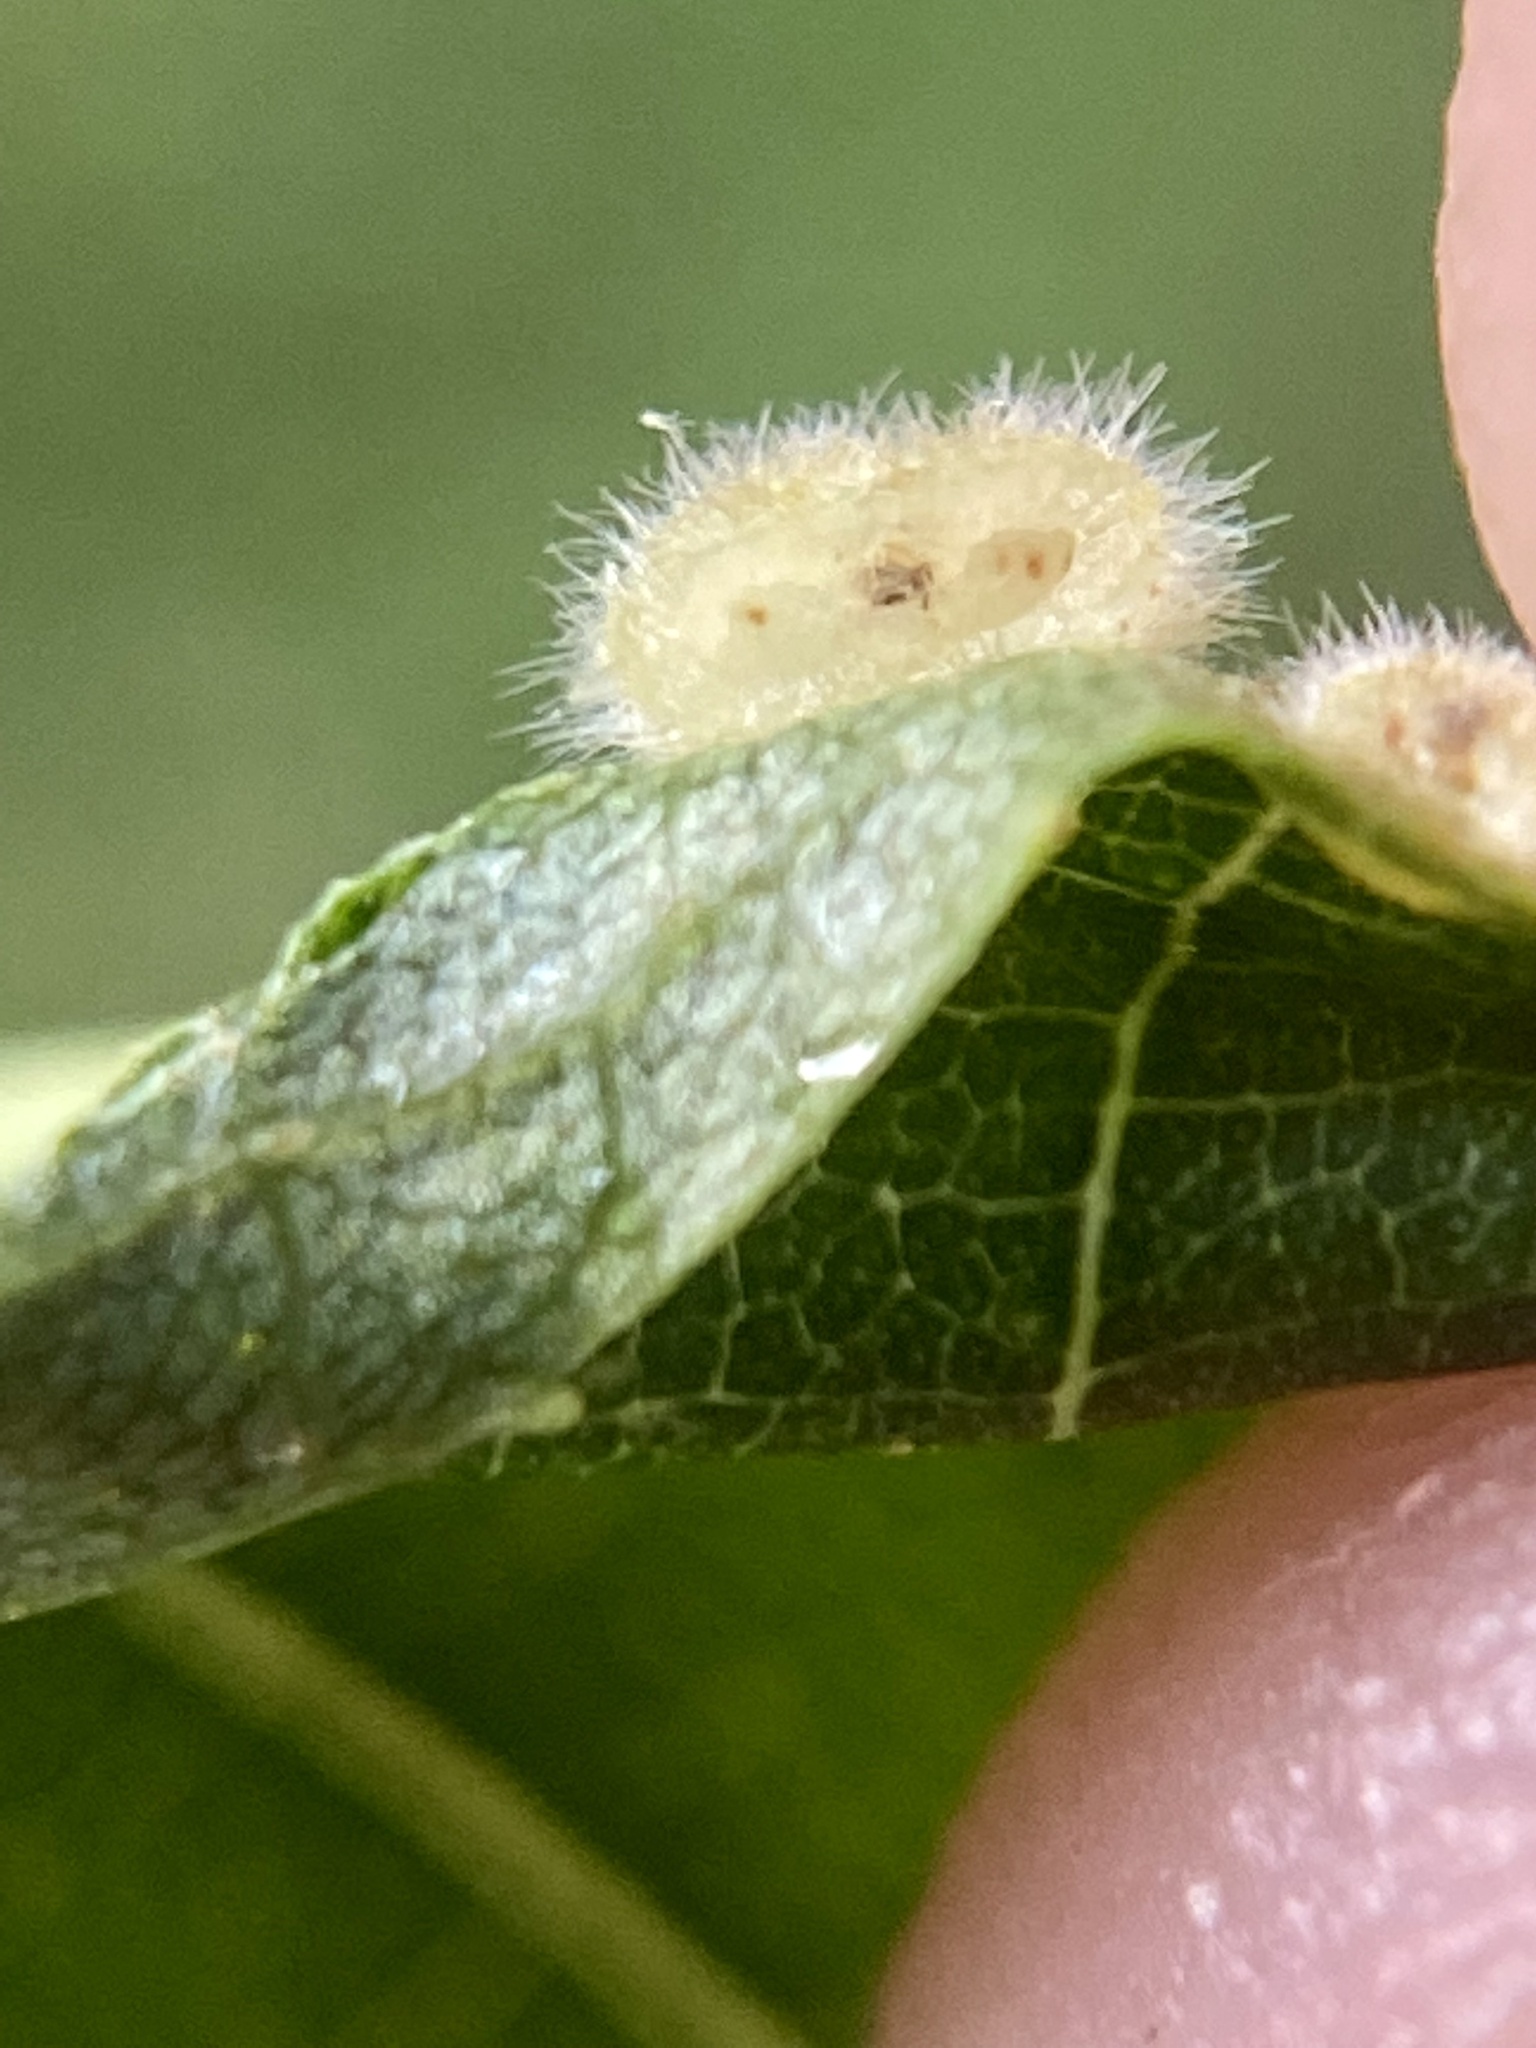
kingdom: Animalia
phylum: Arthropoda
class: Insecta
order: Diptera
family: Cecidomyiidae
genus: Caryomyia
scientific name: Caryomyia thompsoni
